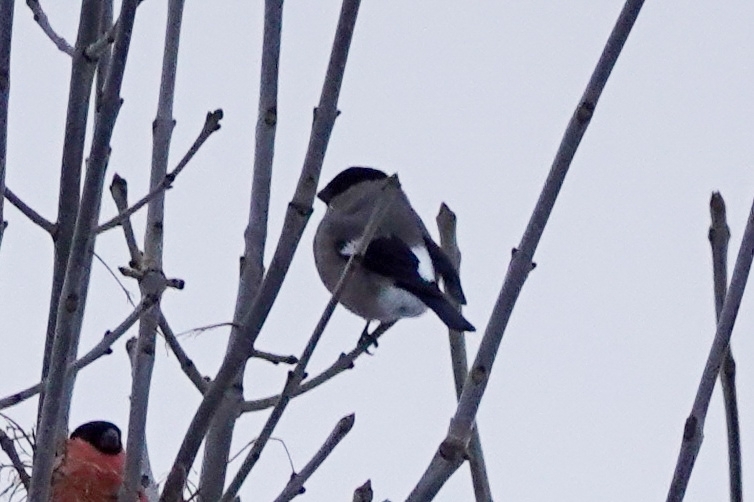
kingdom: Animalia
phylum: Chordata
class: Aves
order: Passeriformes
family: Fringillidae
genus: Pyrrhula
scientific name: Pyrrhula pyrrhula
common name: Eurasian bullfinch
